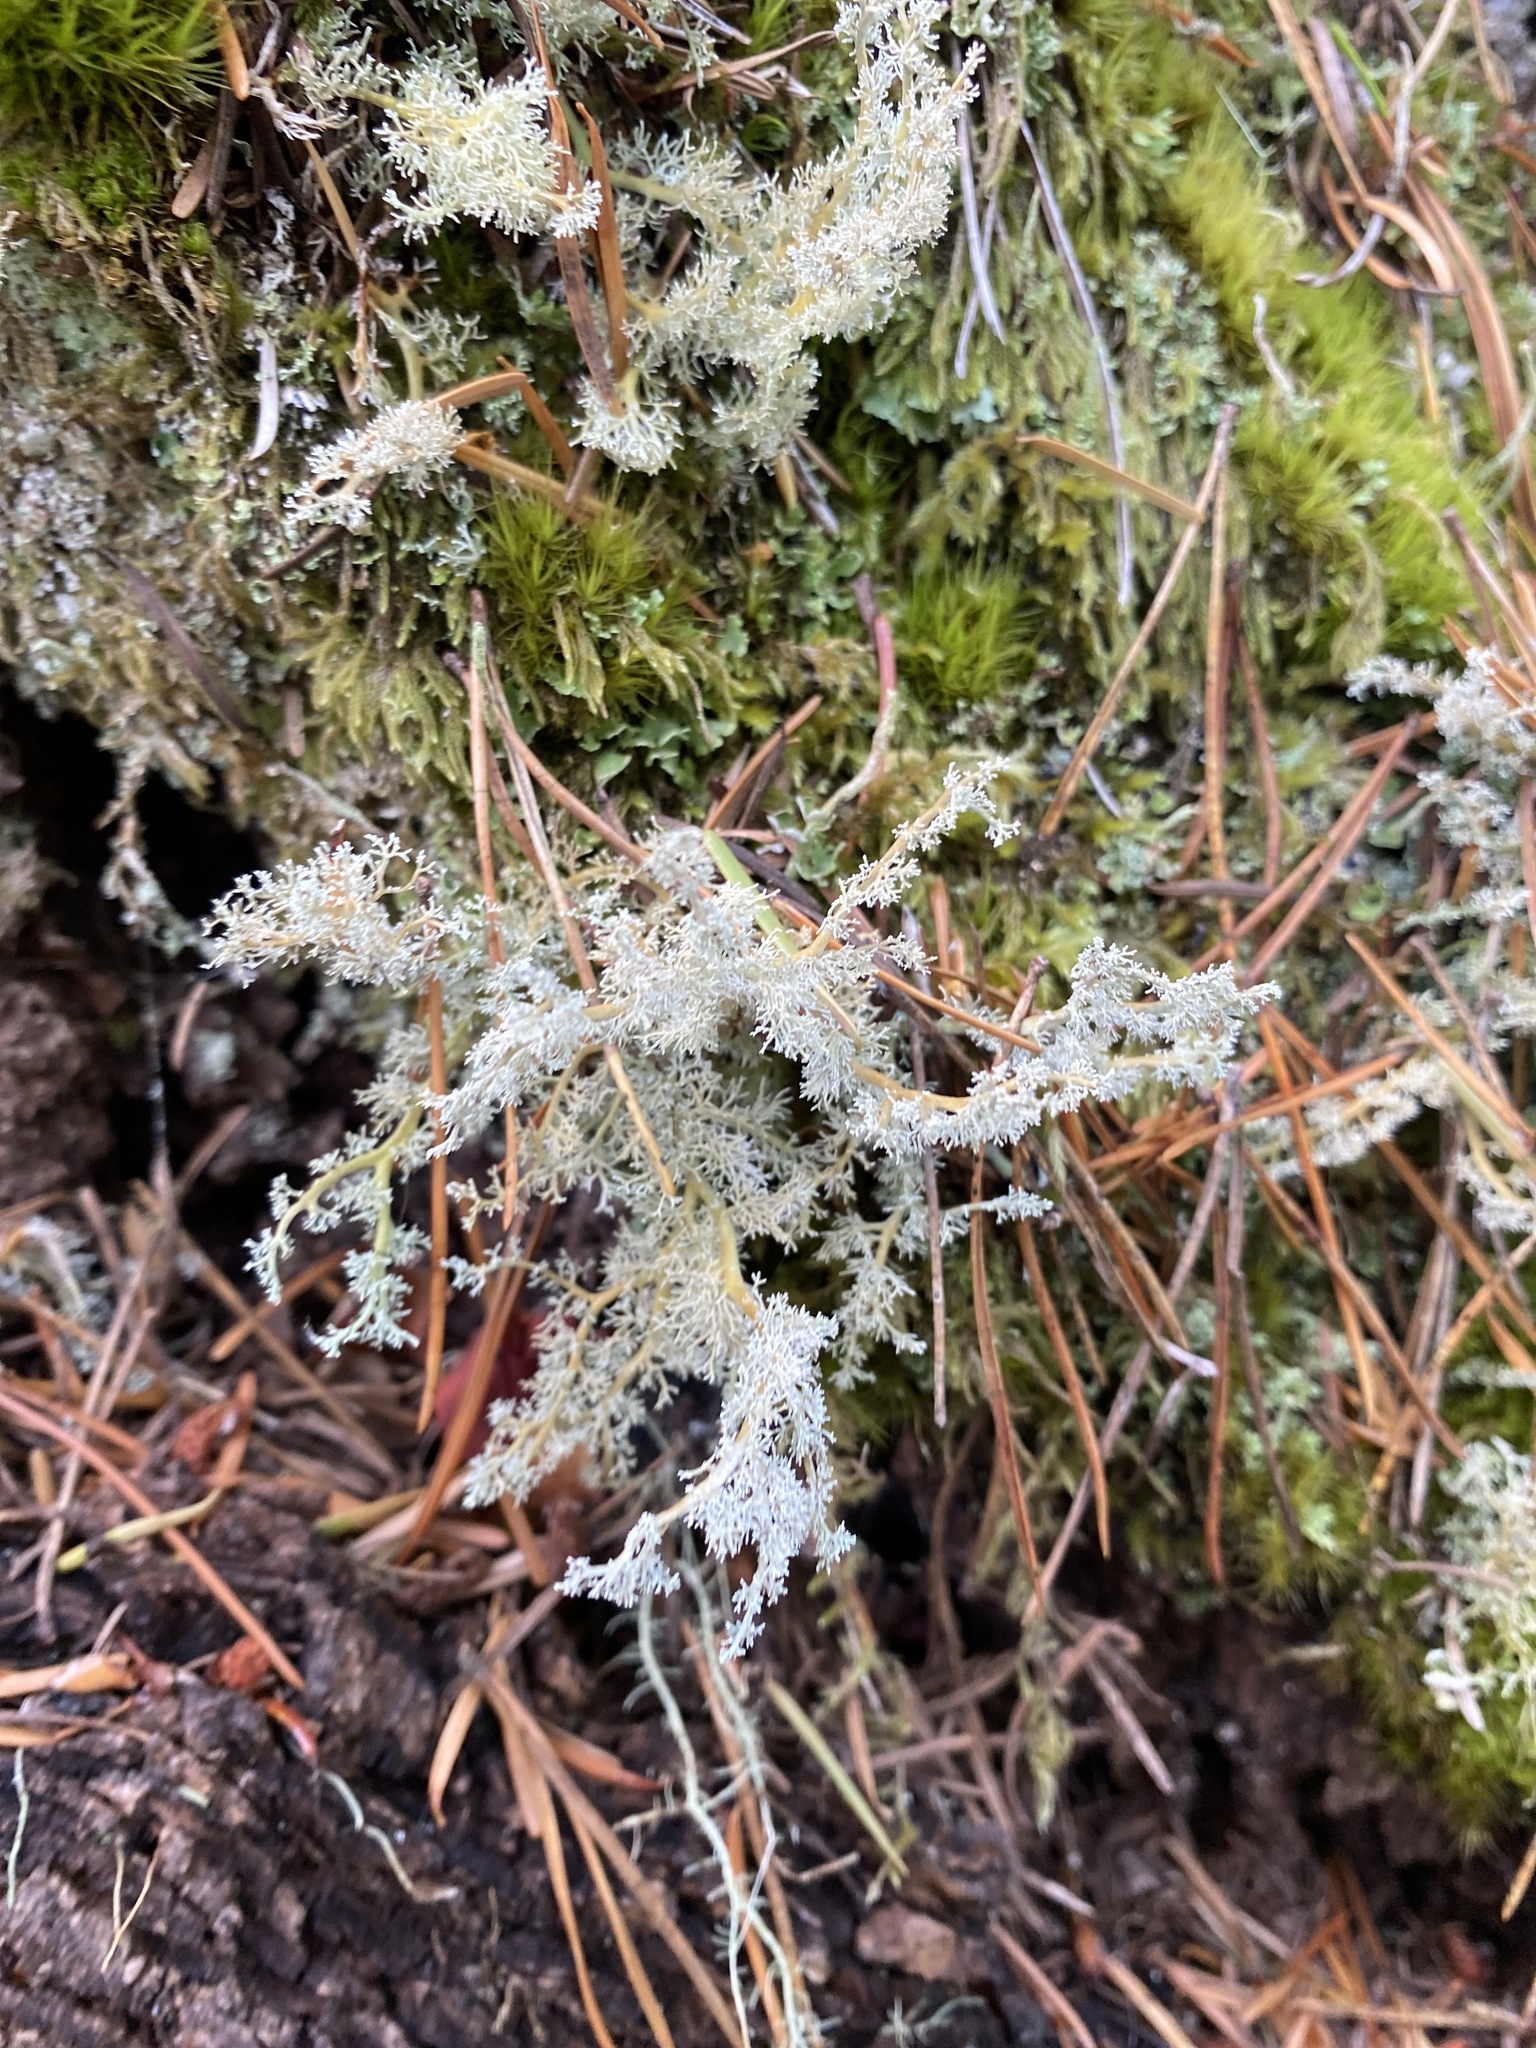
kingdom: Fungi
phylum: Ascomycota
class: Lecanoromycetes
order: Lecanorales
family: Sphaerophoraceae
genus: Sphaerophorus
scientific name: Sphaerophorus globosus
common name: Globe ball lichen
